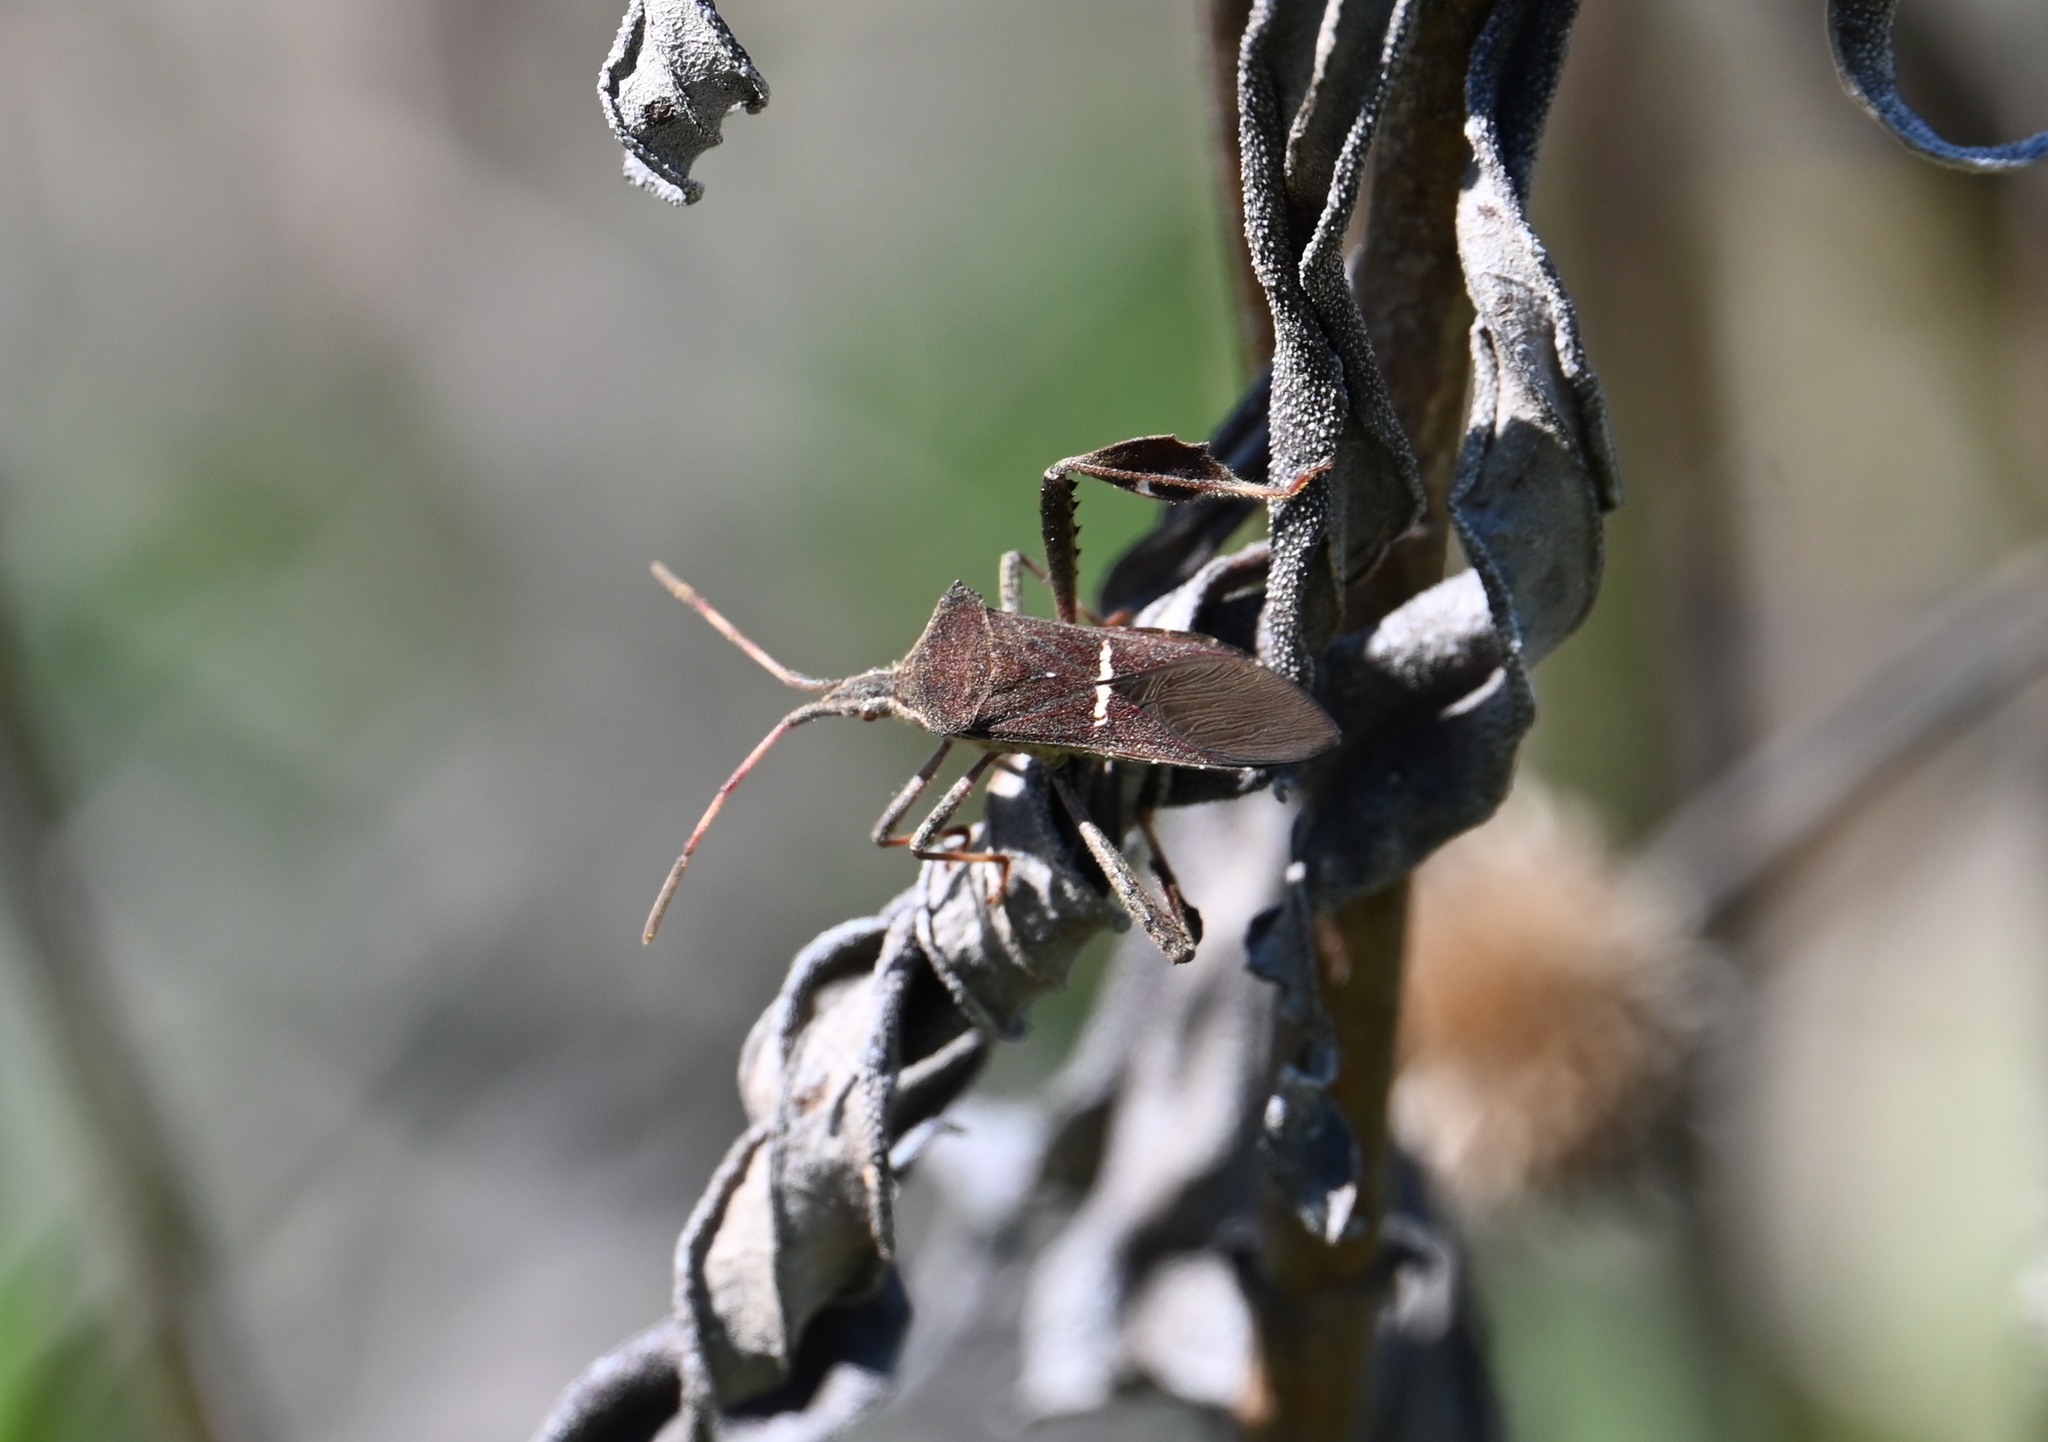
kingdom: Animalia
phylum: Arthropoda
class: Insecta
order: Hemiptera
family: Coreidae
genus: Leptoglossus
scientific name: Leptoglossus phyllopus
